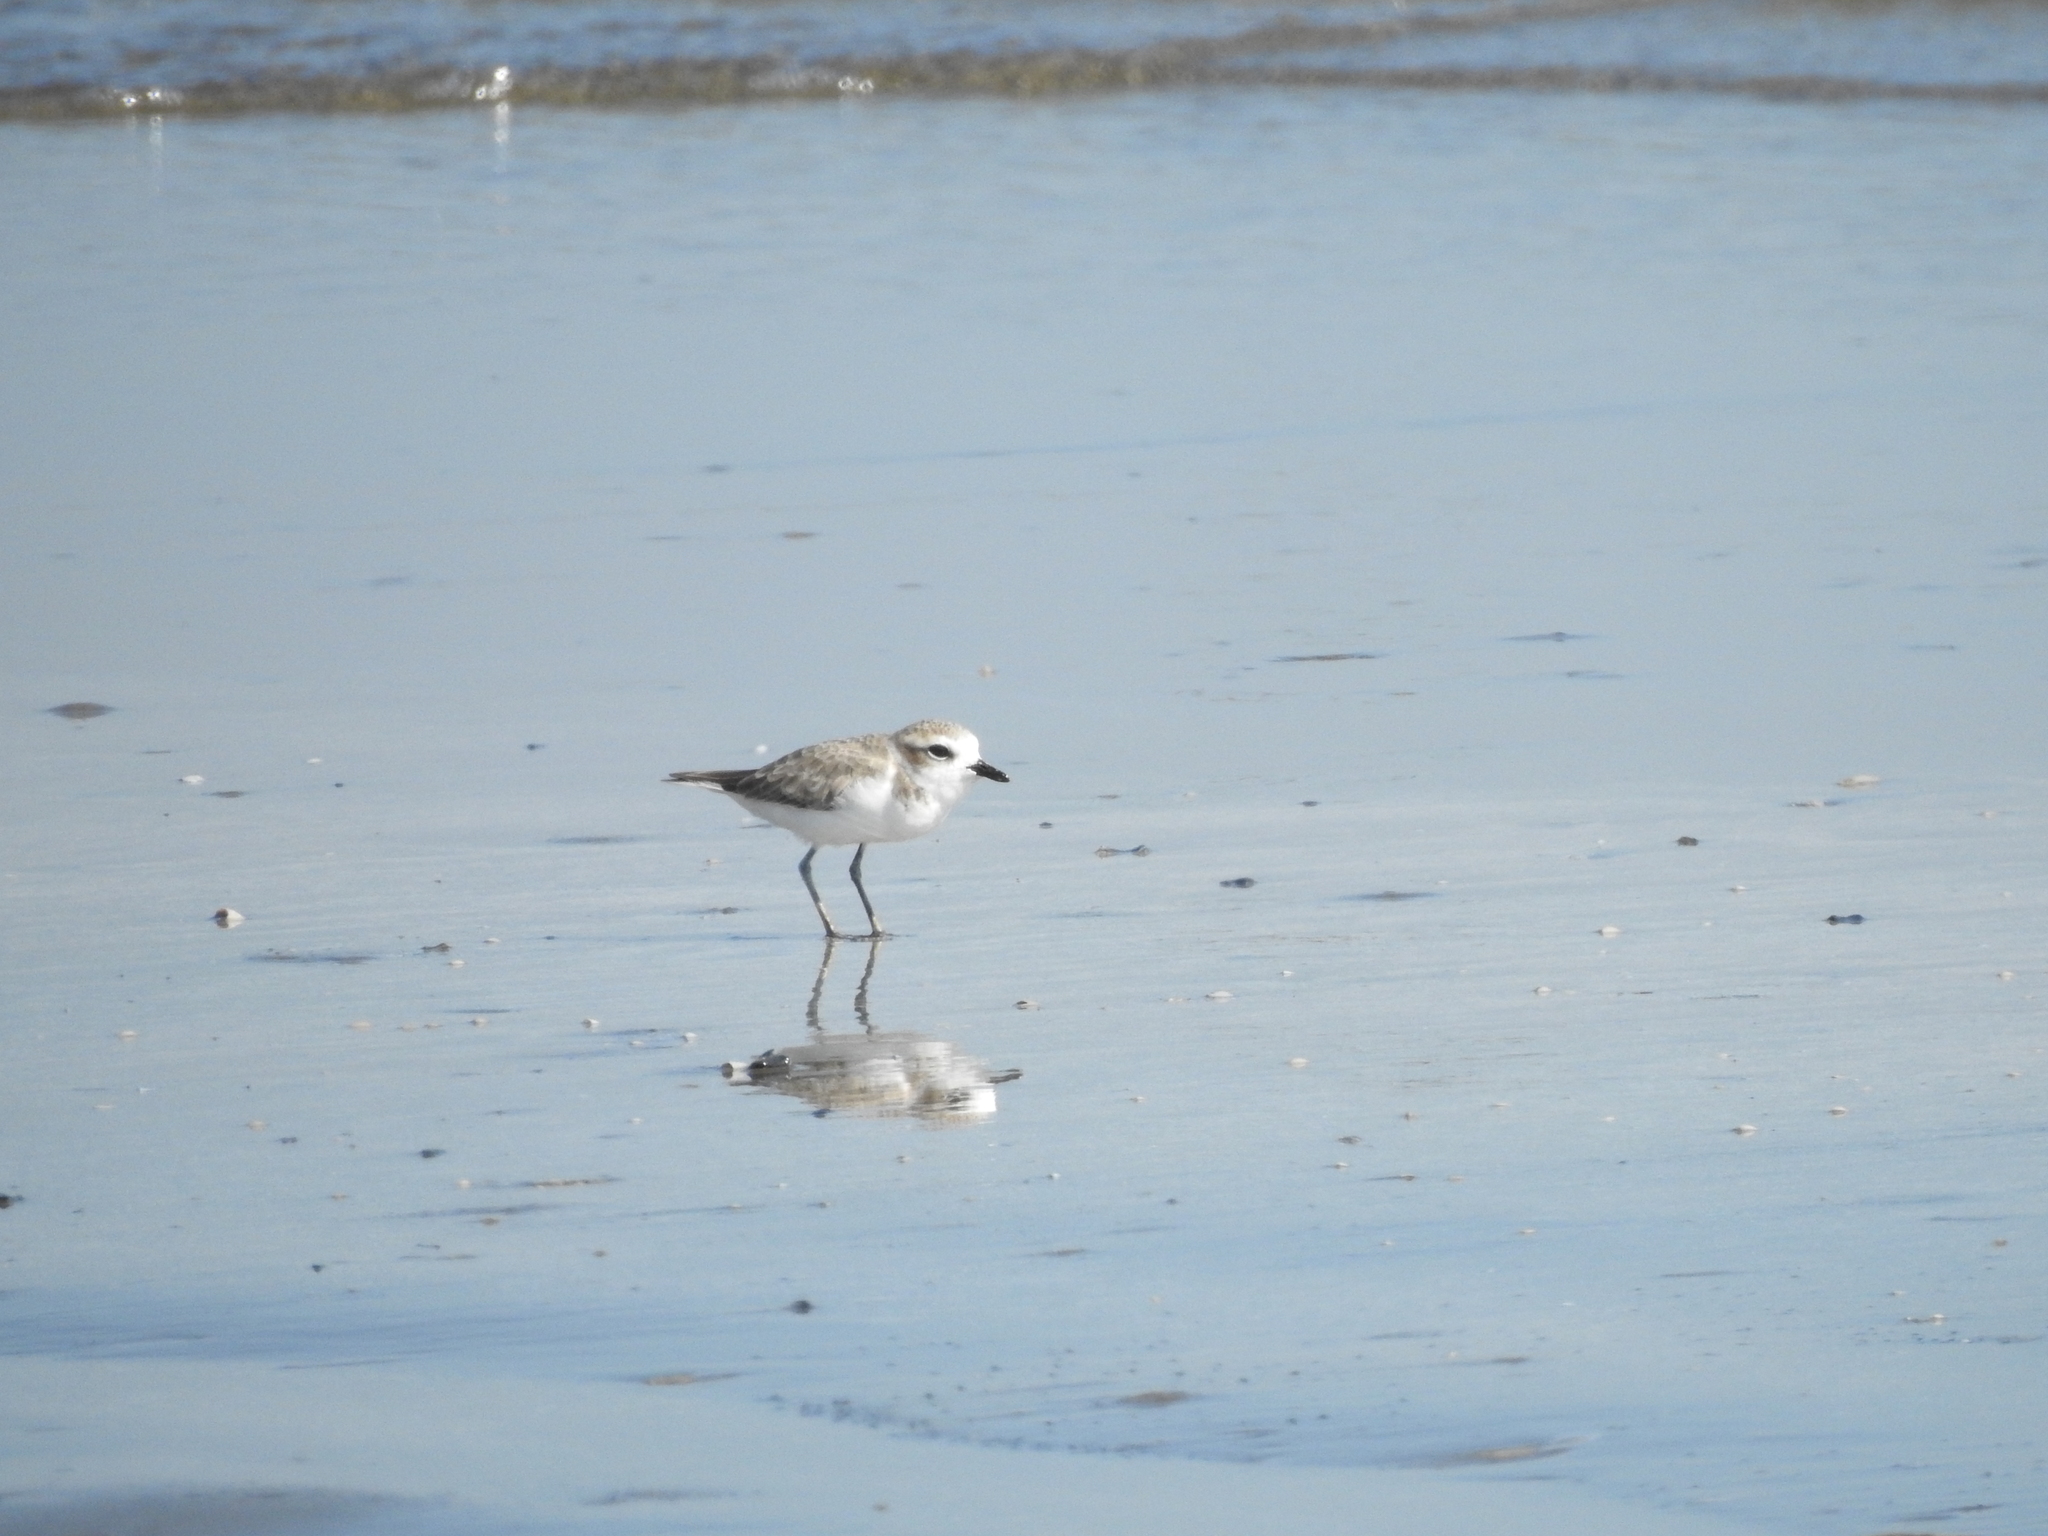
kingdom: Animalia
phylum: Chordata
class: Aves
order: Charadriiformes
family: Charadriidae
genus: Anarhynchus
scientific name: Anarhynchus
